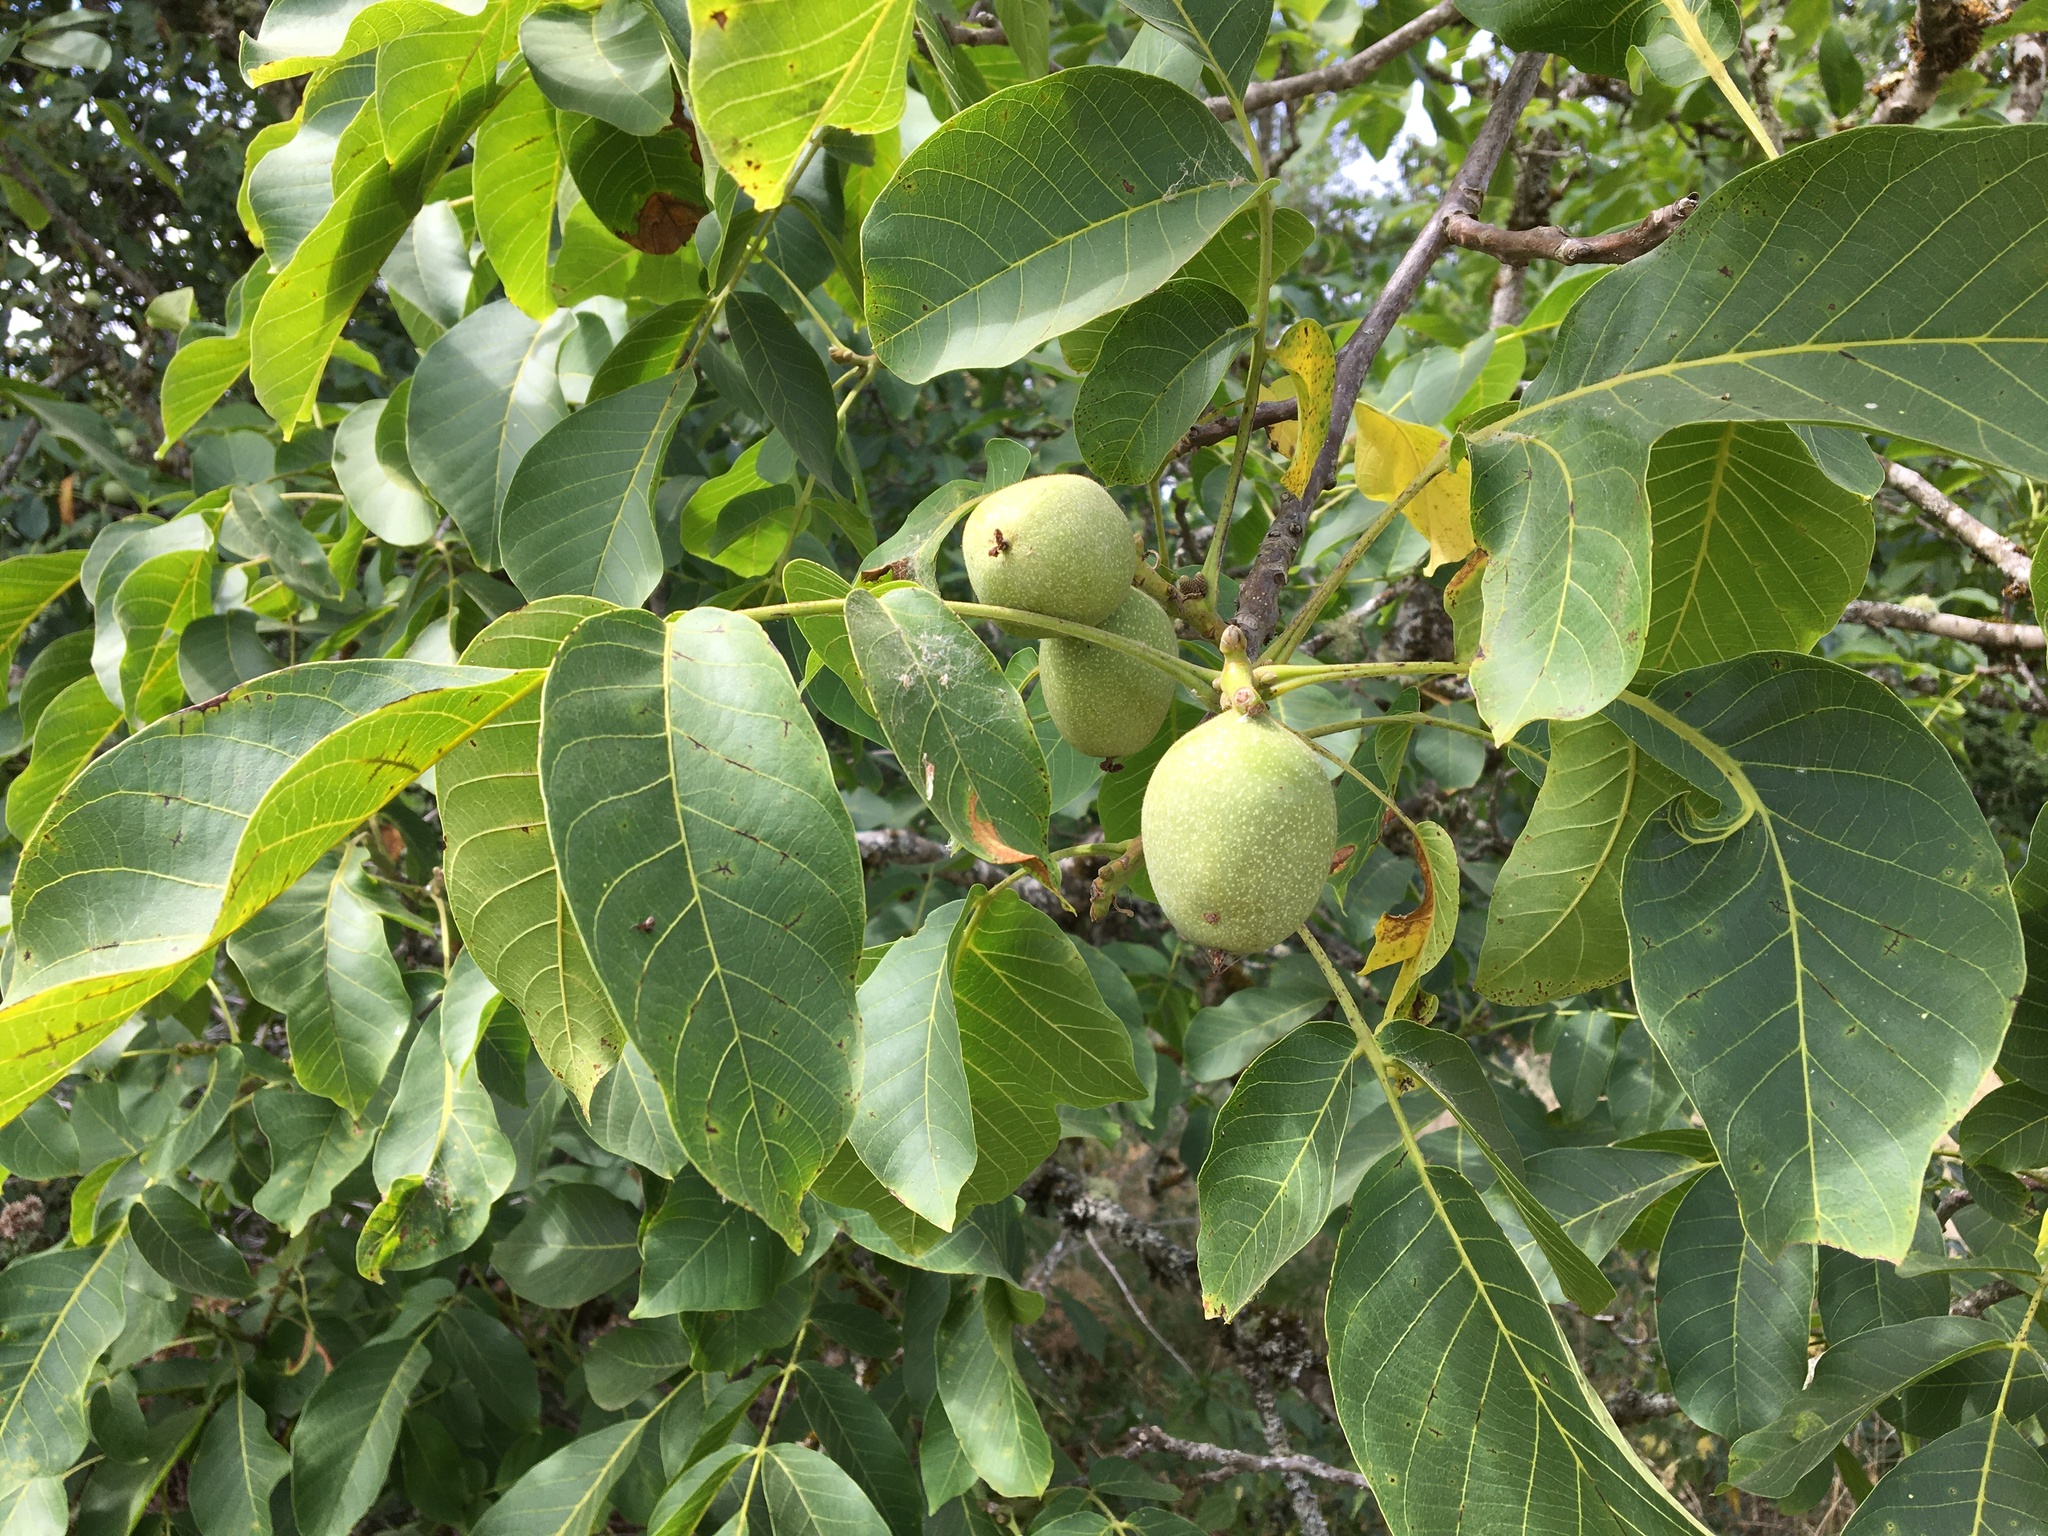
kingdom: Plantae
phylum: Tracheophyta
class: Magnoliopsida
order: Fagales
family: Juglandaceae
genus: Juglans
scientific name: Juglans regia
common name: Walnut
